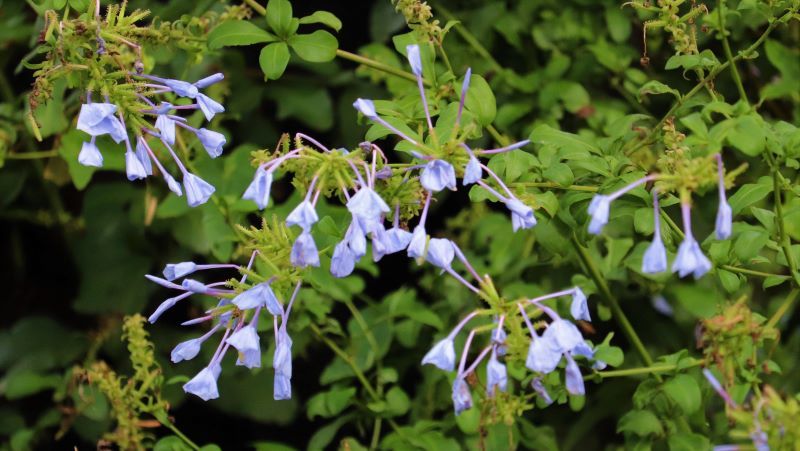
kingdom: Plantae
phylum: Tracheophyta
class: Magnoliopsida
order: Caryophyllales
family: Plumbaginaceae
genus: Plumbago
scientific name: Plumbago auriculata
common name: Cape leadwort
